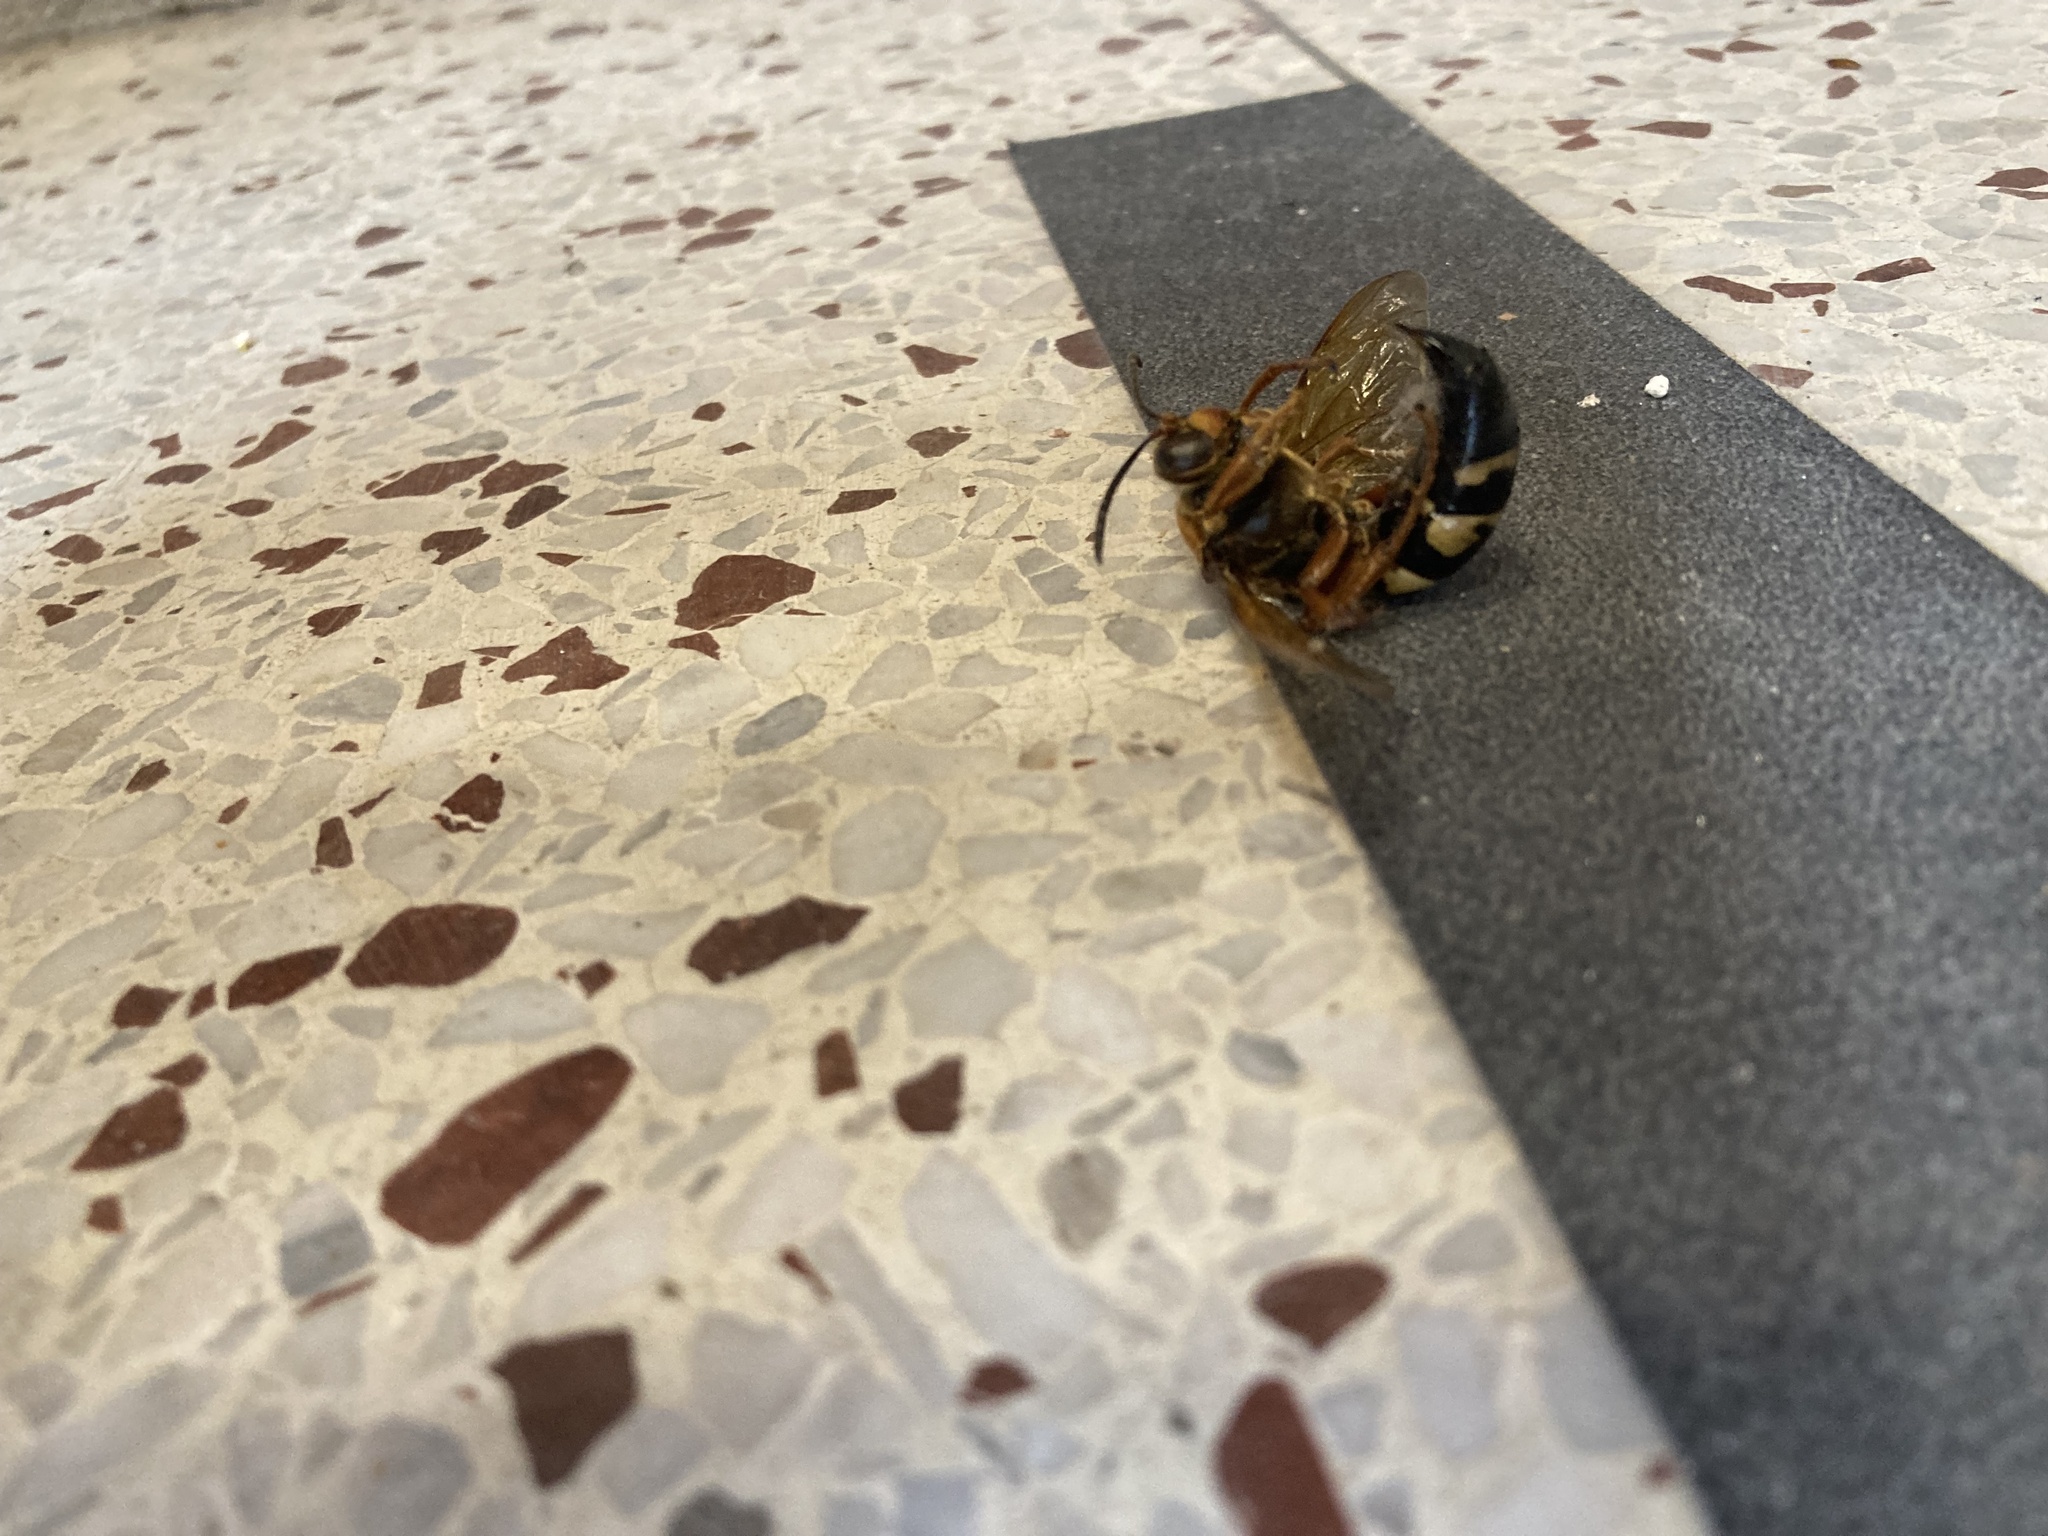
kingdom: Animalia
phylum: Arthropoda
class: Insecta
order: Hymenoptera
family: Crabronidae
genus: Sphecius
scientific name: Sphecius speciosus
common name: Cicada killer
